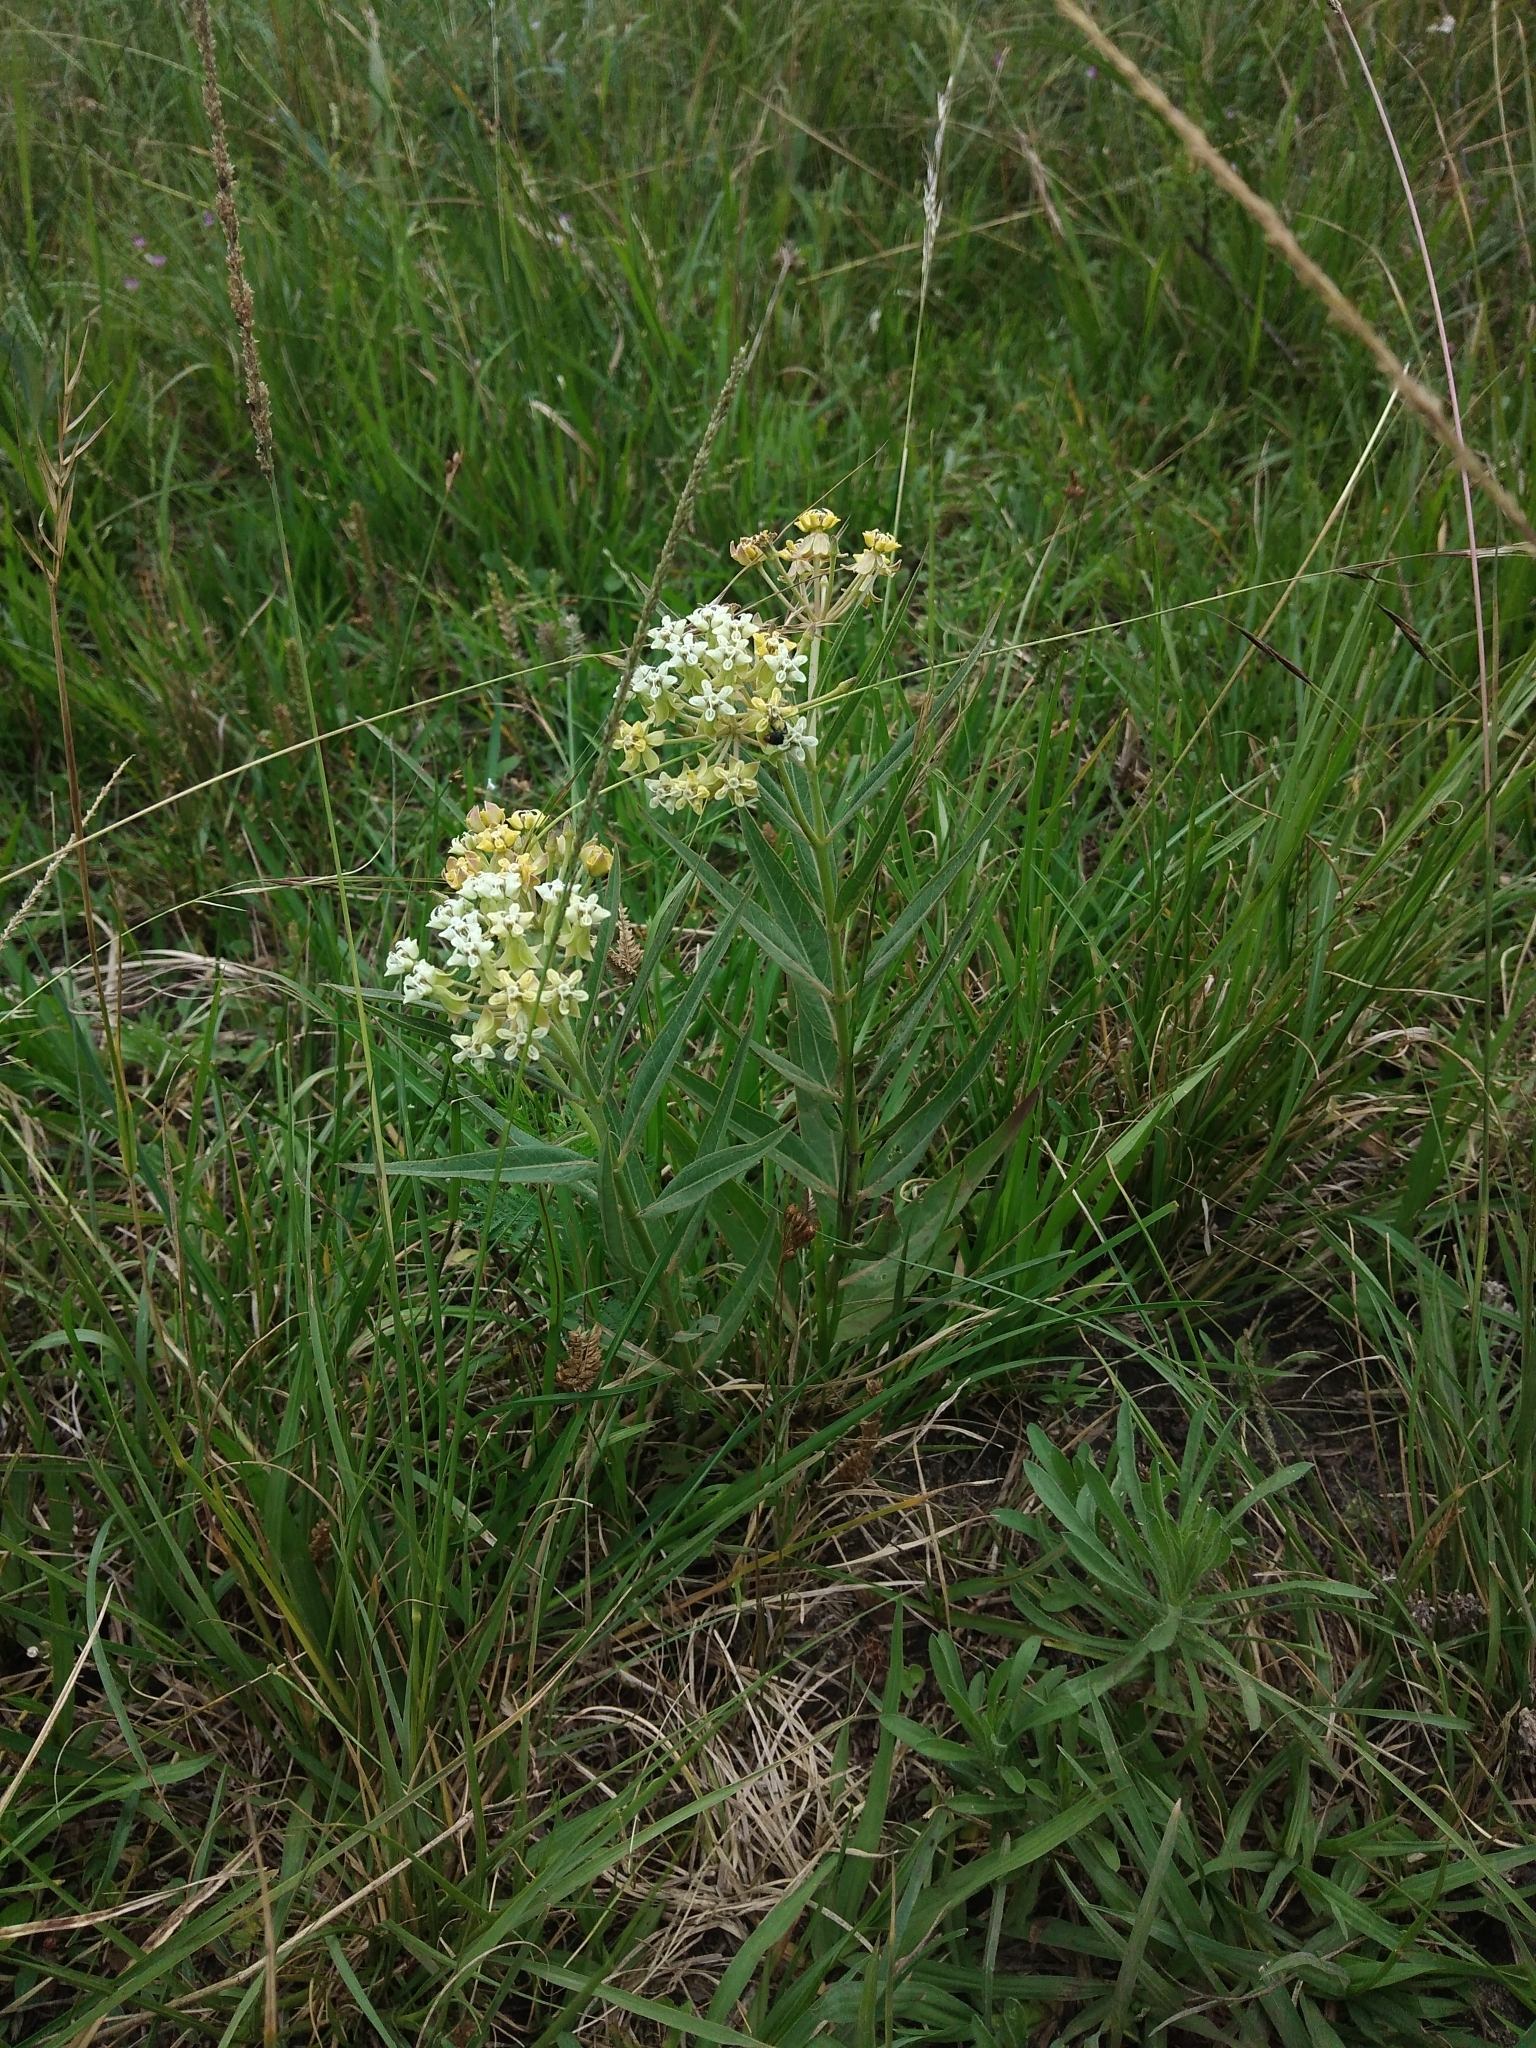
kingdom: Plantae
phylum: Tracheophyta
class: Magnoliopsida
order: Gentianales
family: Apocynaceae
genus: Asclepias
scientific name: Asclepias mellodora
